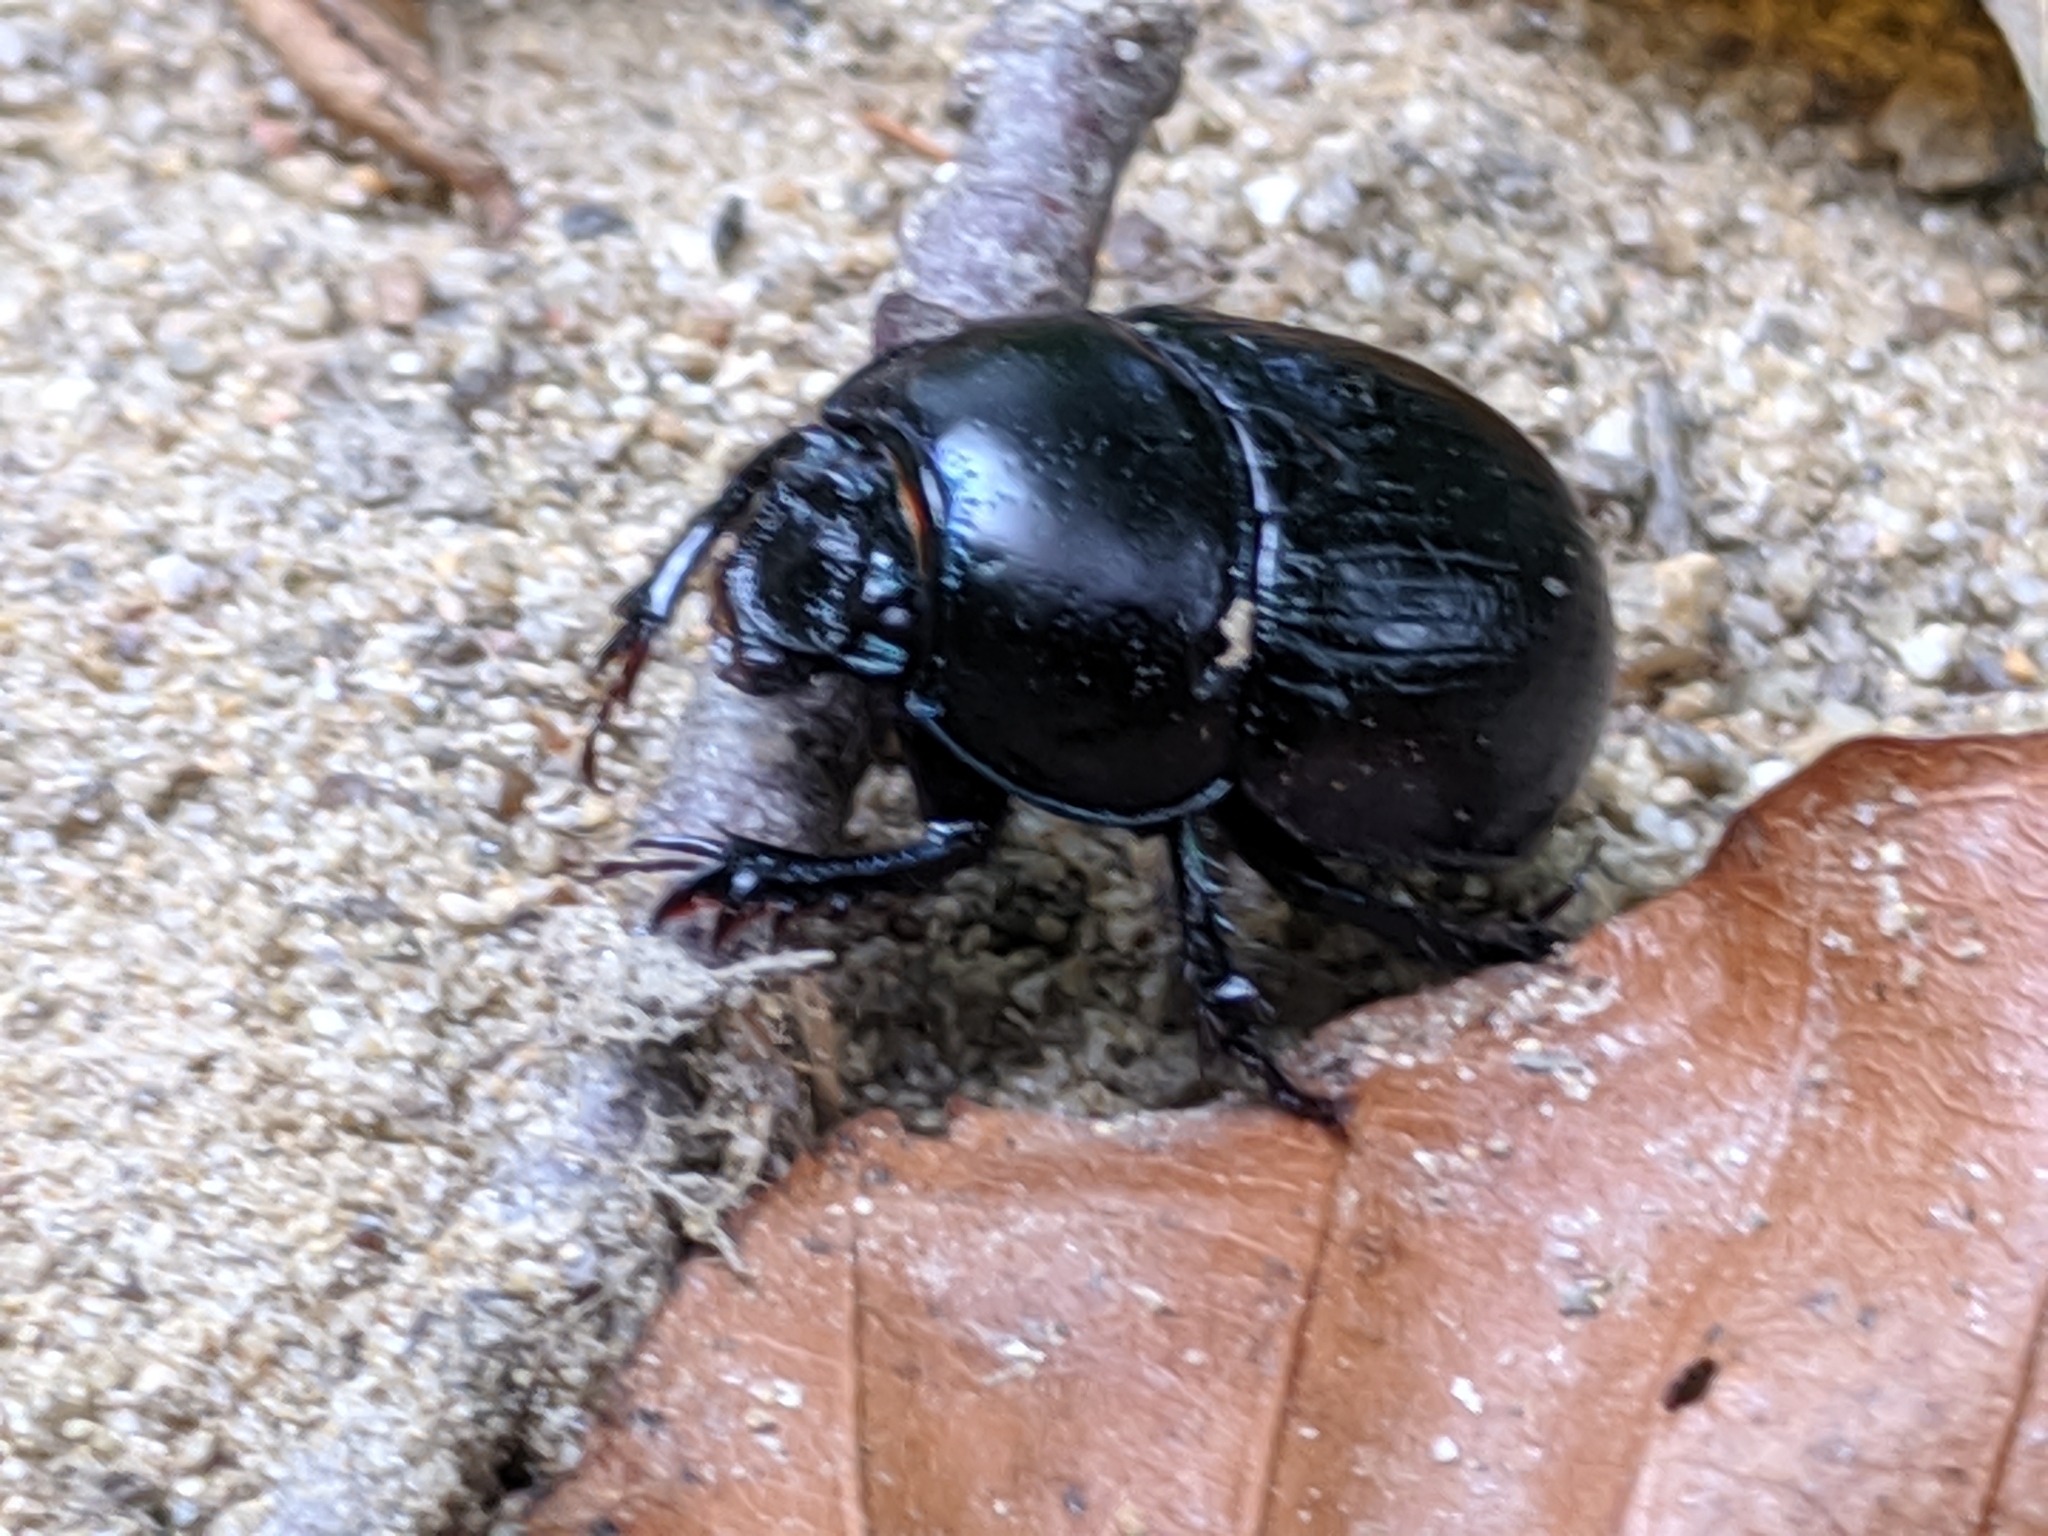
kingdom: Animalia
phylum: Arthropoda
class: Insecta
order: Coleoptera
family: Geotrupidae
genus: Anoplotrupes
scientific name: Anoplotrupes stercorosus
